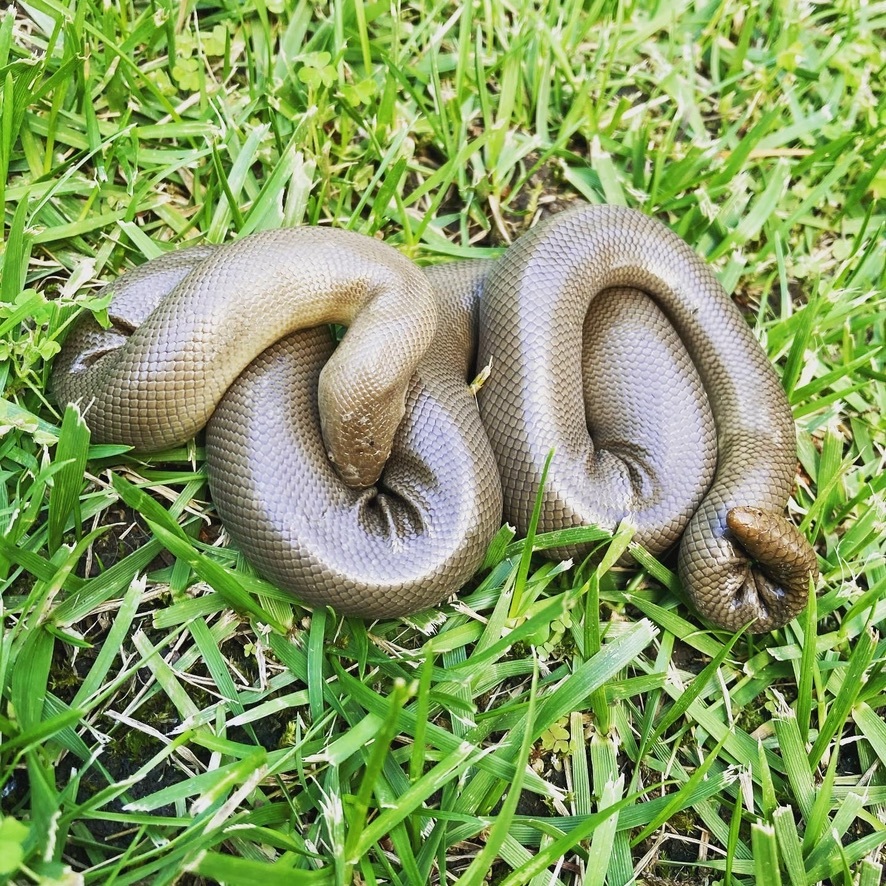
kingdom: Animalia
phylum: Chordata
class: Squamata
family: Boidae
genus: Charina
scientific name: Charina bottae
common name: Northern rubber boa
